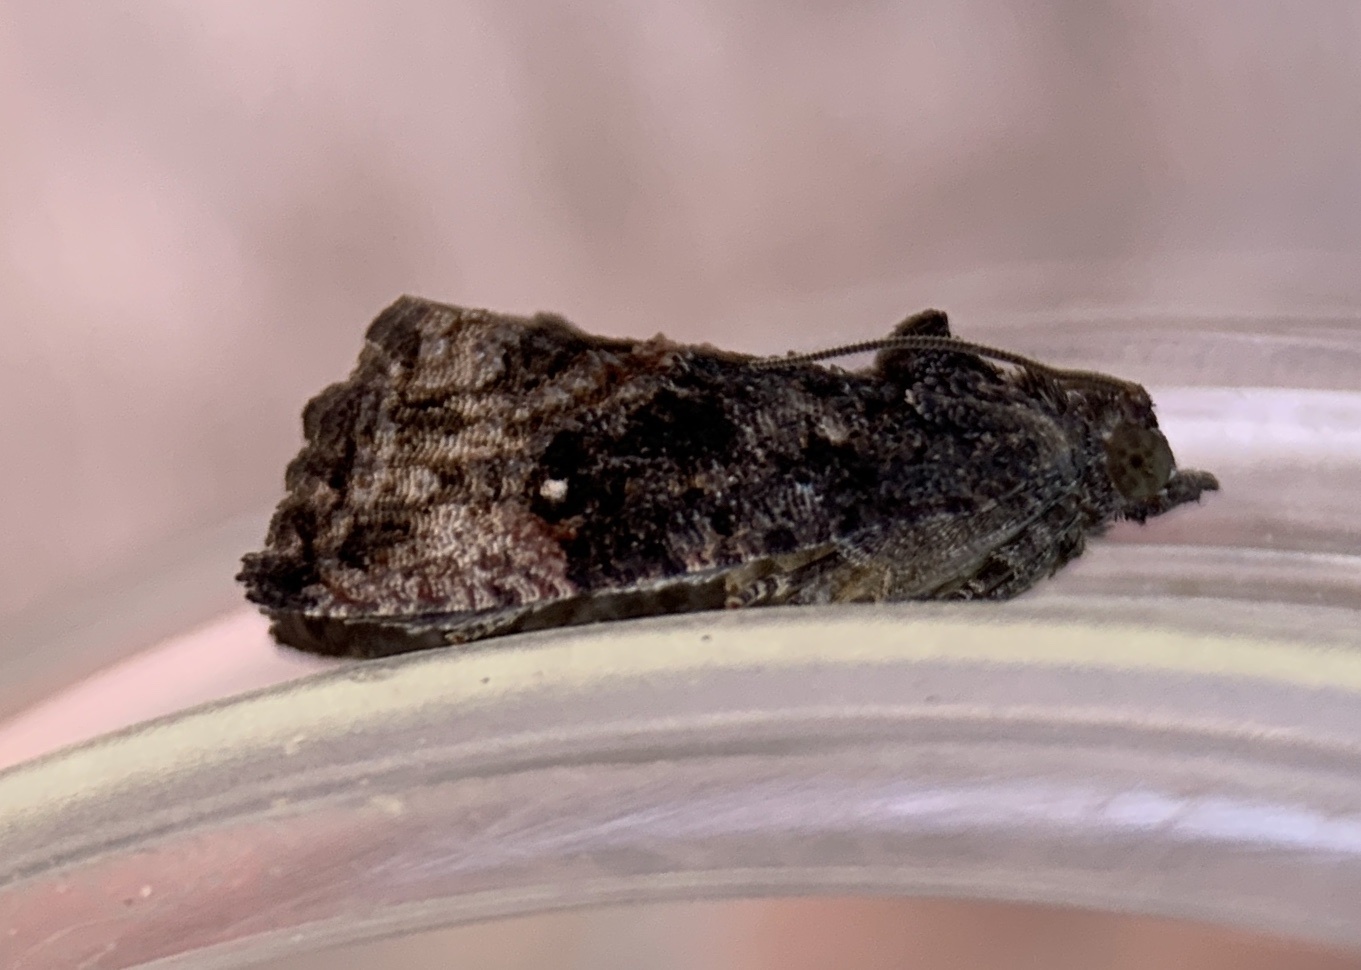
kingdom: Animalia
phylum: Arthropoda
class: Insecta
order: Lepidoptera
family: Tortricidae
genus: Gymnandrosoma
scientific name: Gymnandrosoma punctidiscanum
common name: Dotted ecdytolopha moth
